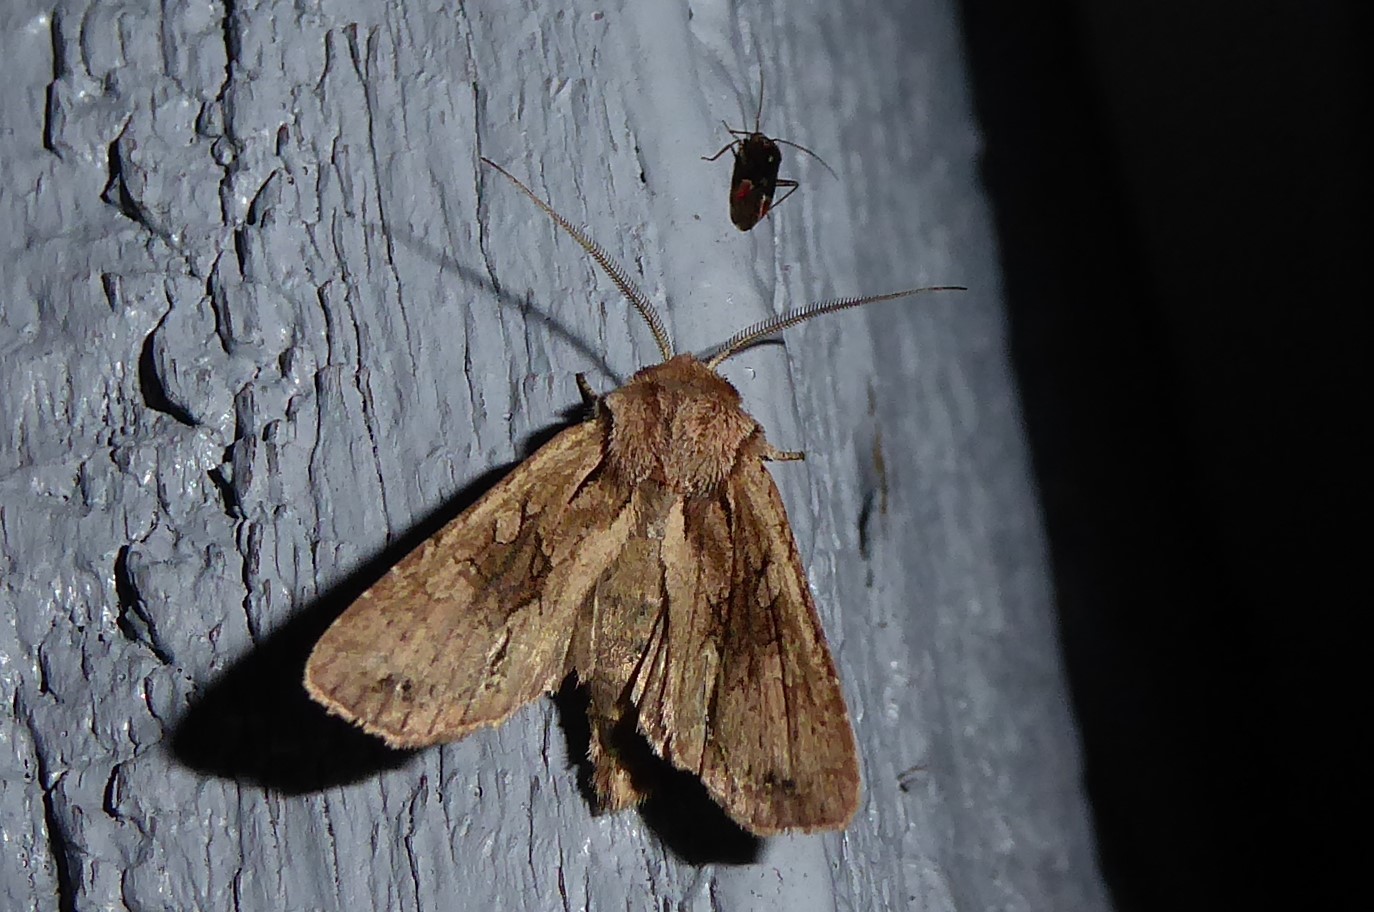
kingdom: Animalia
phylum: Arthropoda
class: Insecta
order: Lepidoptera
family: Noctuidae
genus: Ichneutica
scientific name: Ichneutica
